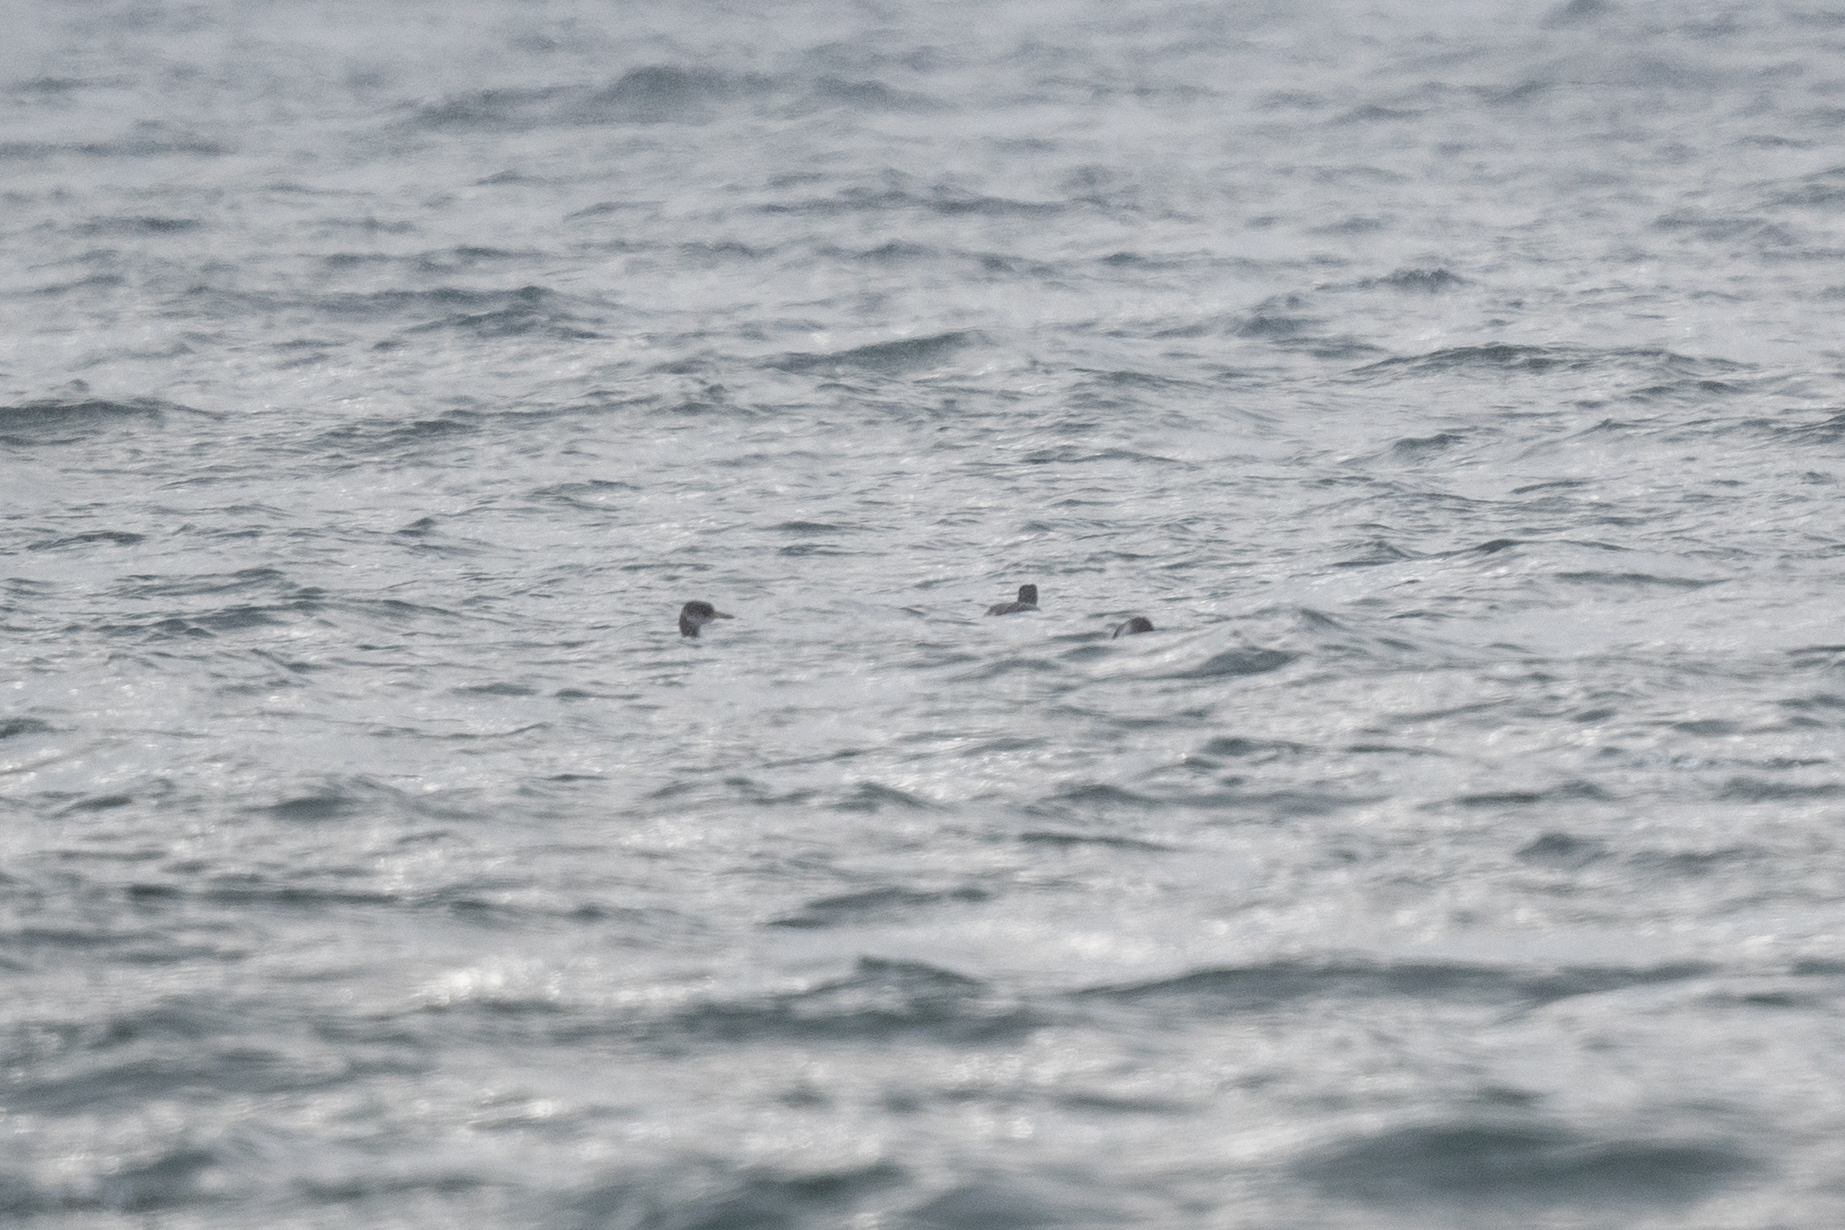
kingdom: Animalia
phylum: Chordata
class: Aves
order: Podicipediformes
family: Podicipedidae
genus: Podiceps
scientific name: Podiceps grisegena
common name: Red-necked grebe
